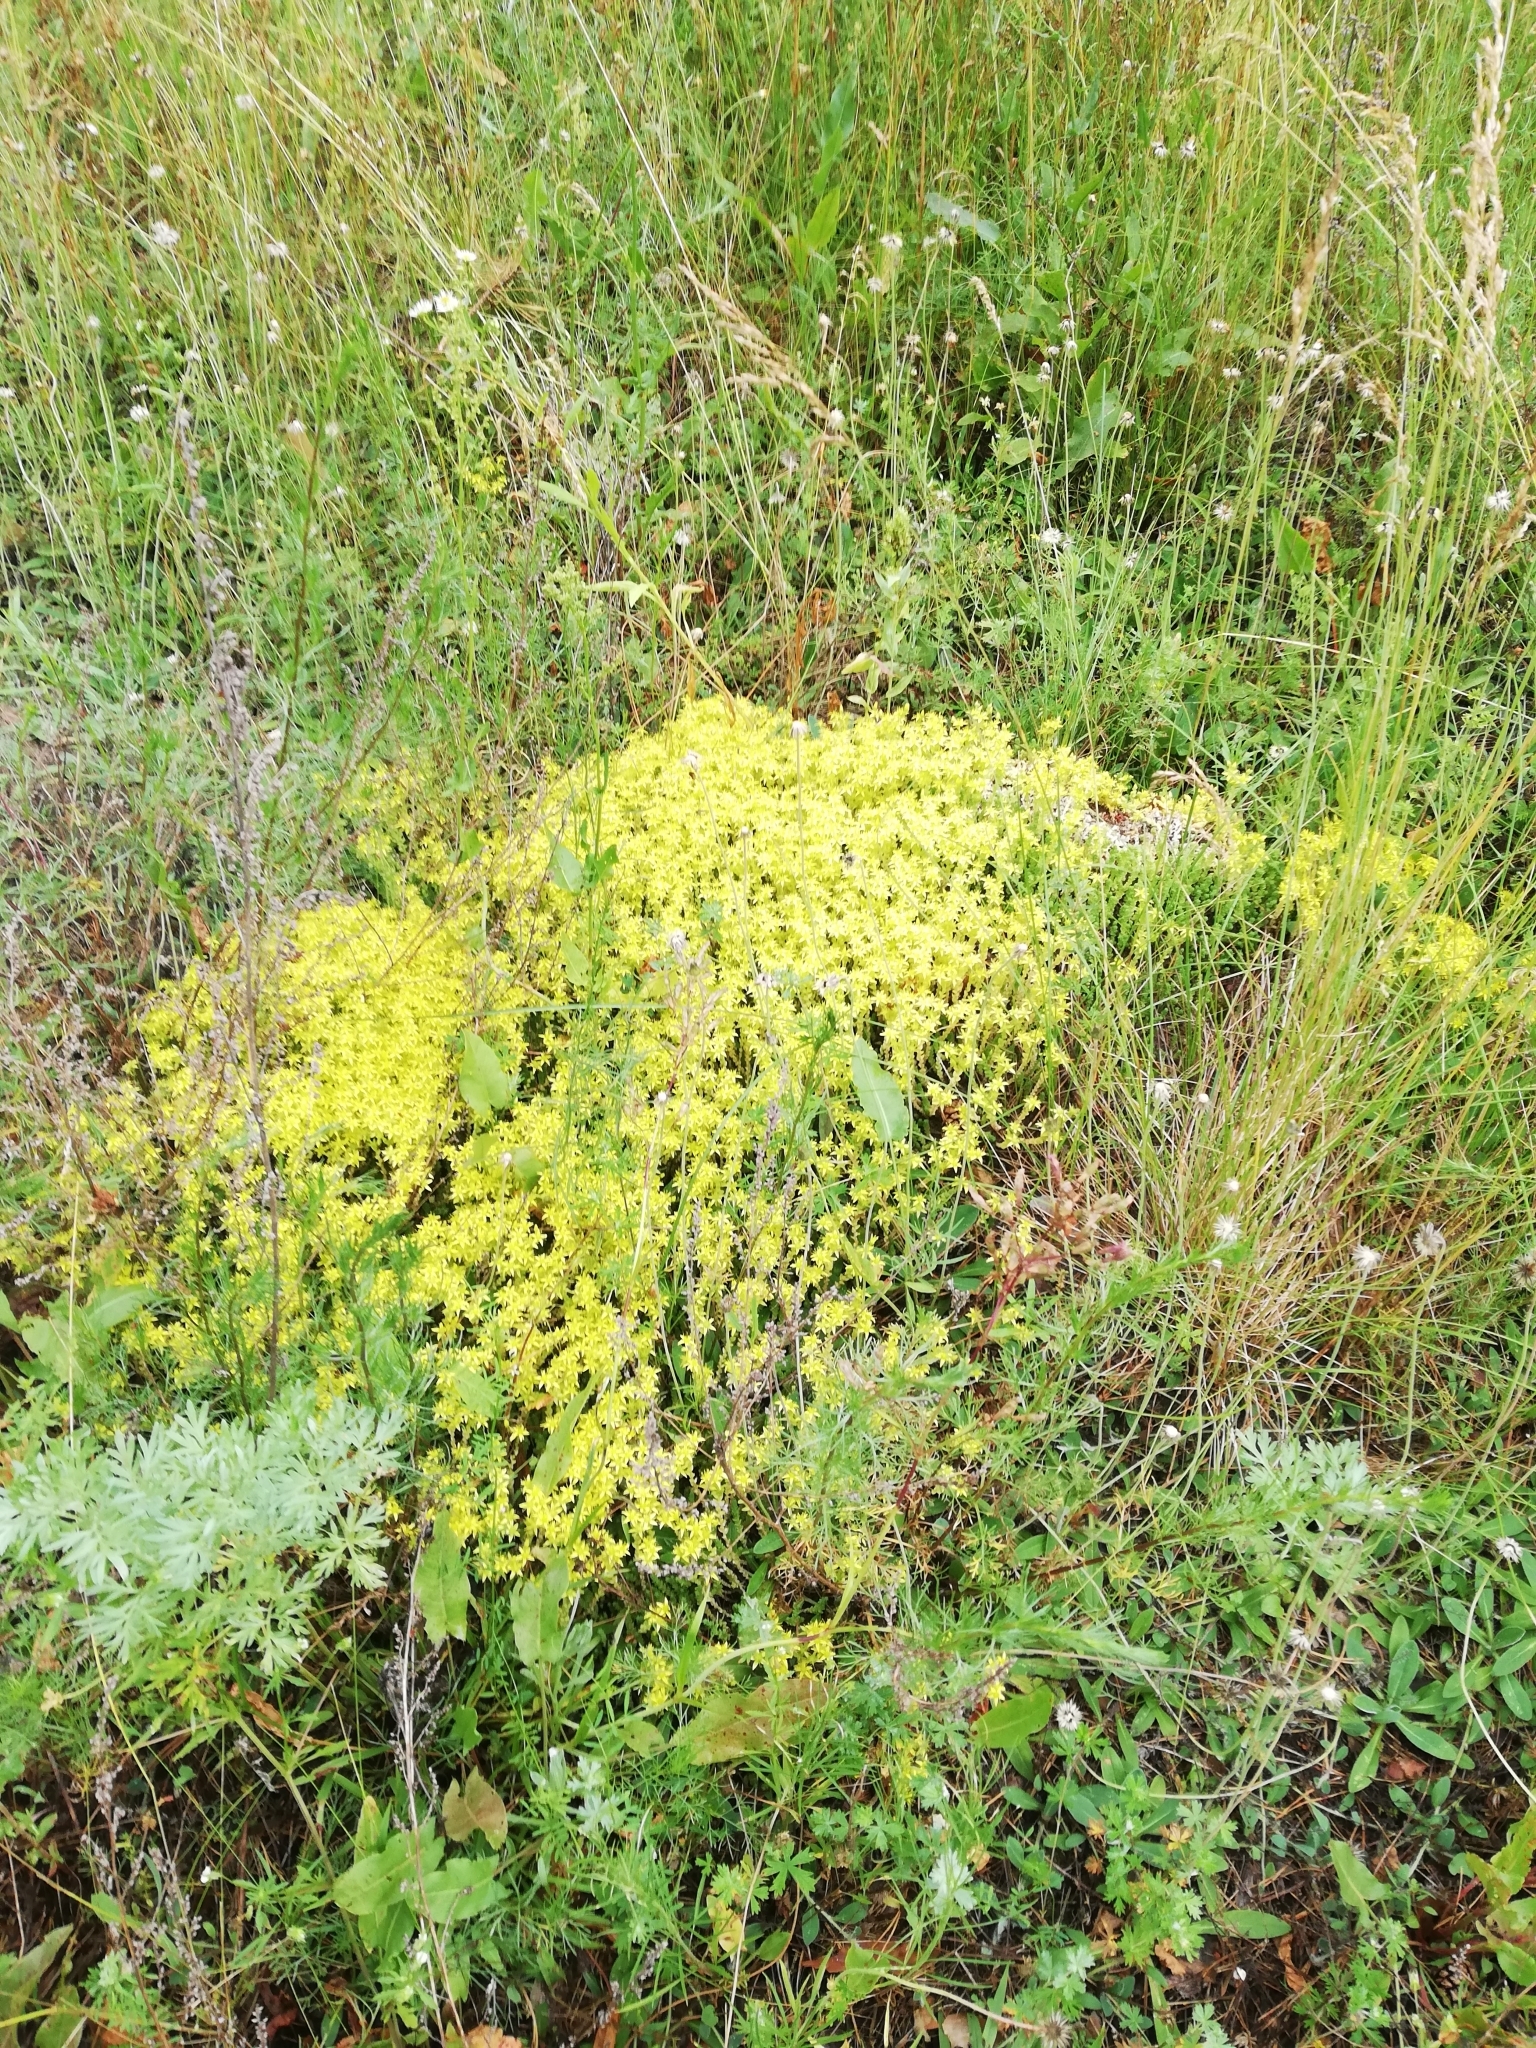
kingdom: Plantae
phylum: Tracheophyta
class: Magnoliopsida
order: Saxifragales
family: Crassulaceae
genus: Sedum
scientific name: Sedum acre
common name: Biting stonecrop
